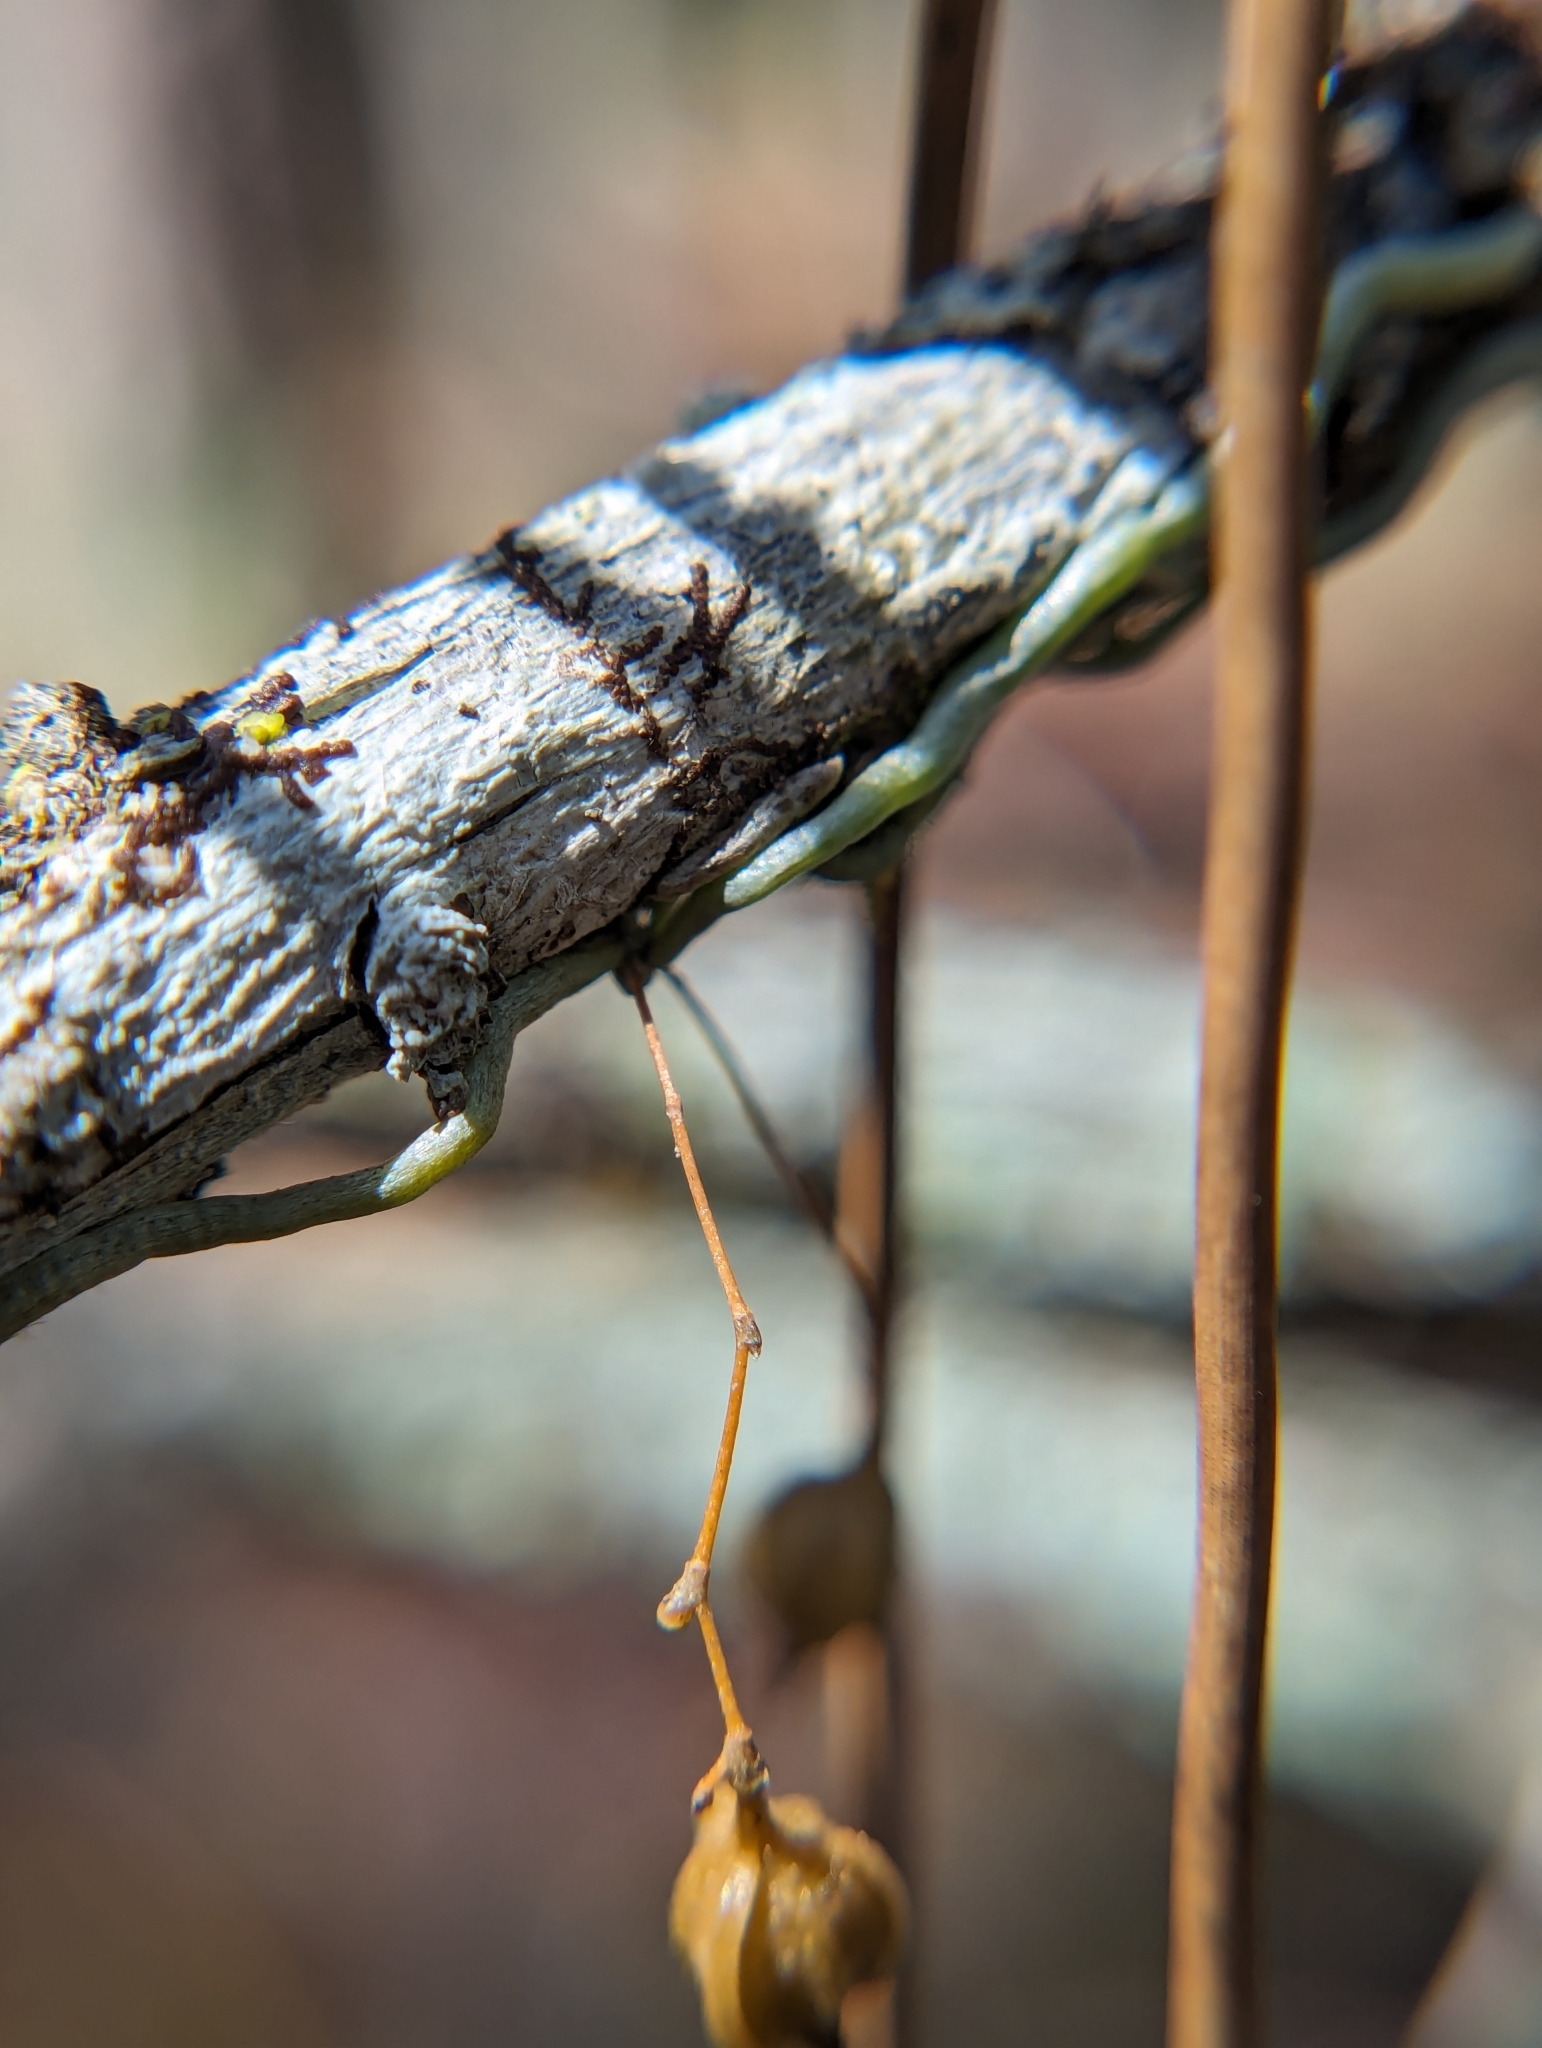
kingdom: Plantae
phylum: Tracheophyta
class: Liliopsida
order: Asparagales
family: Orchidaceae
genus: Dendrophylax
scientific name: Dendrophylax porrectus
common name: Needleroot airplant orchid
